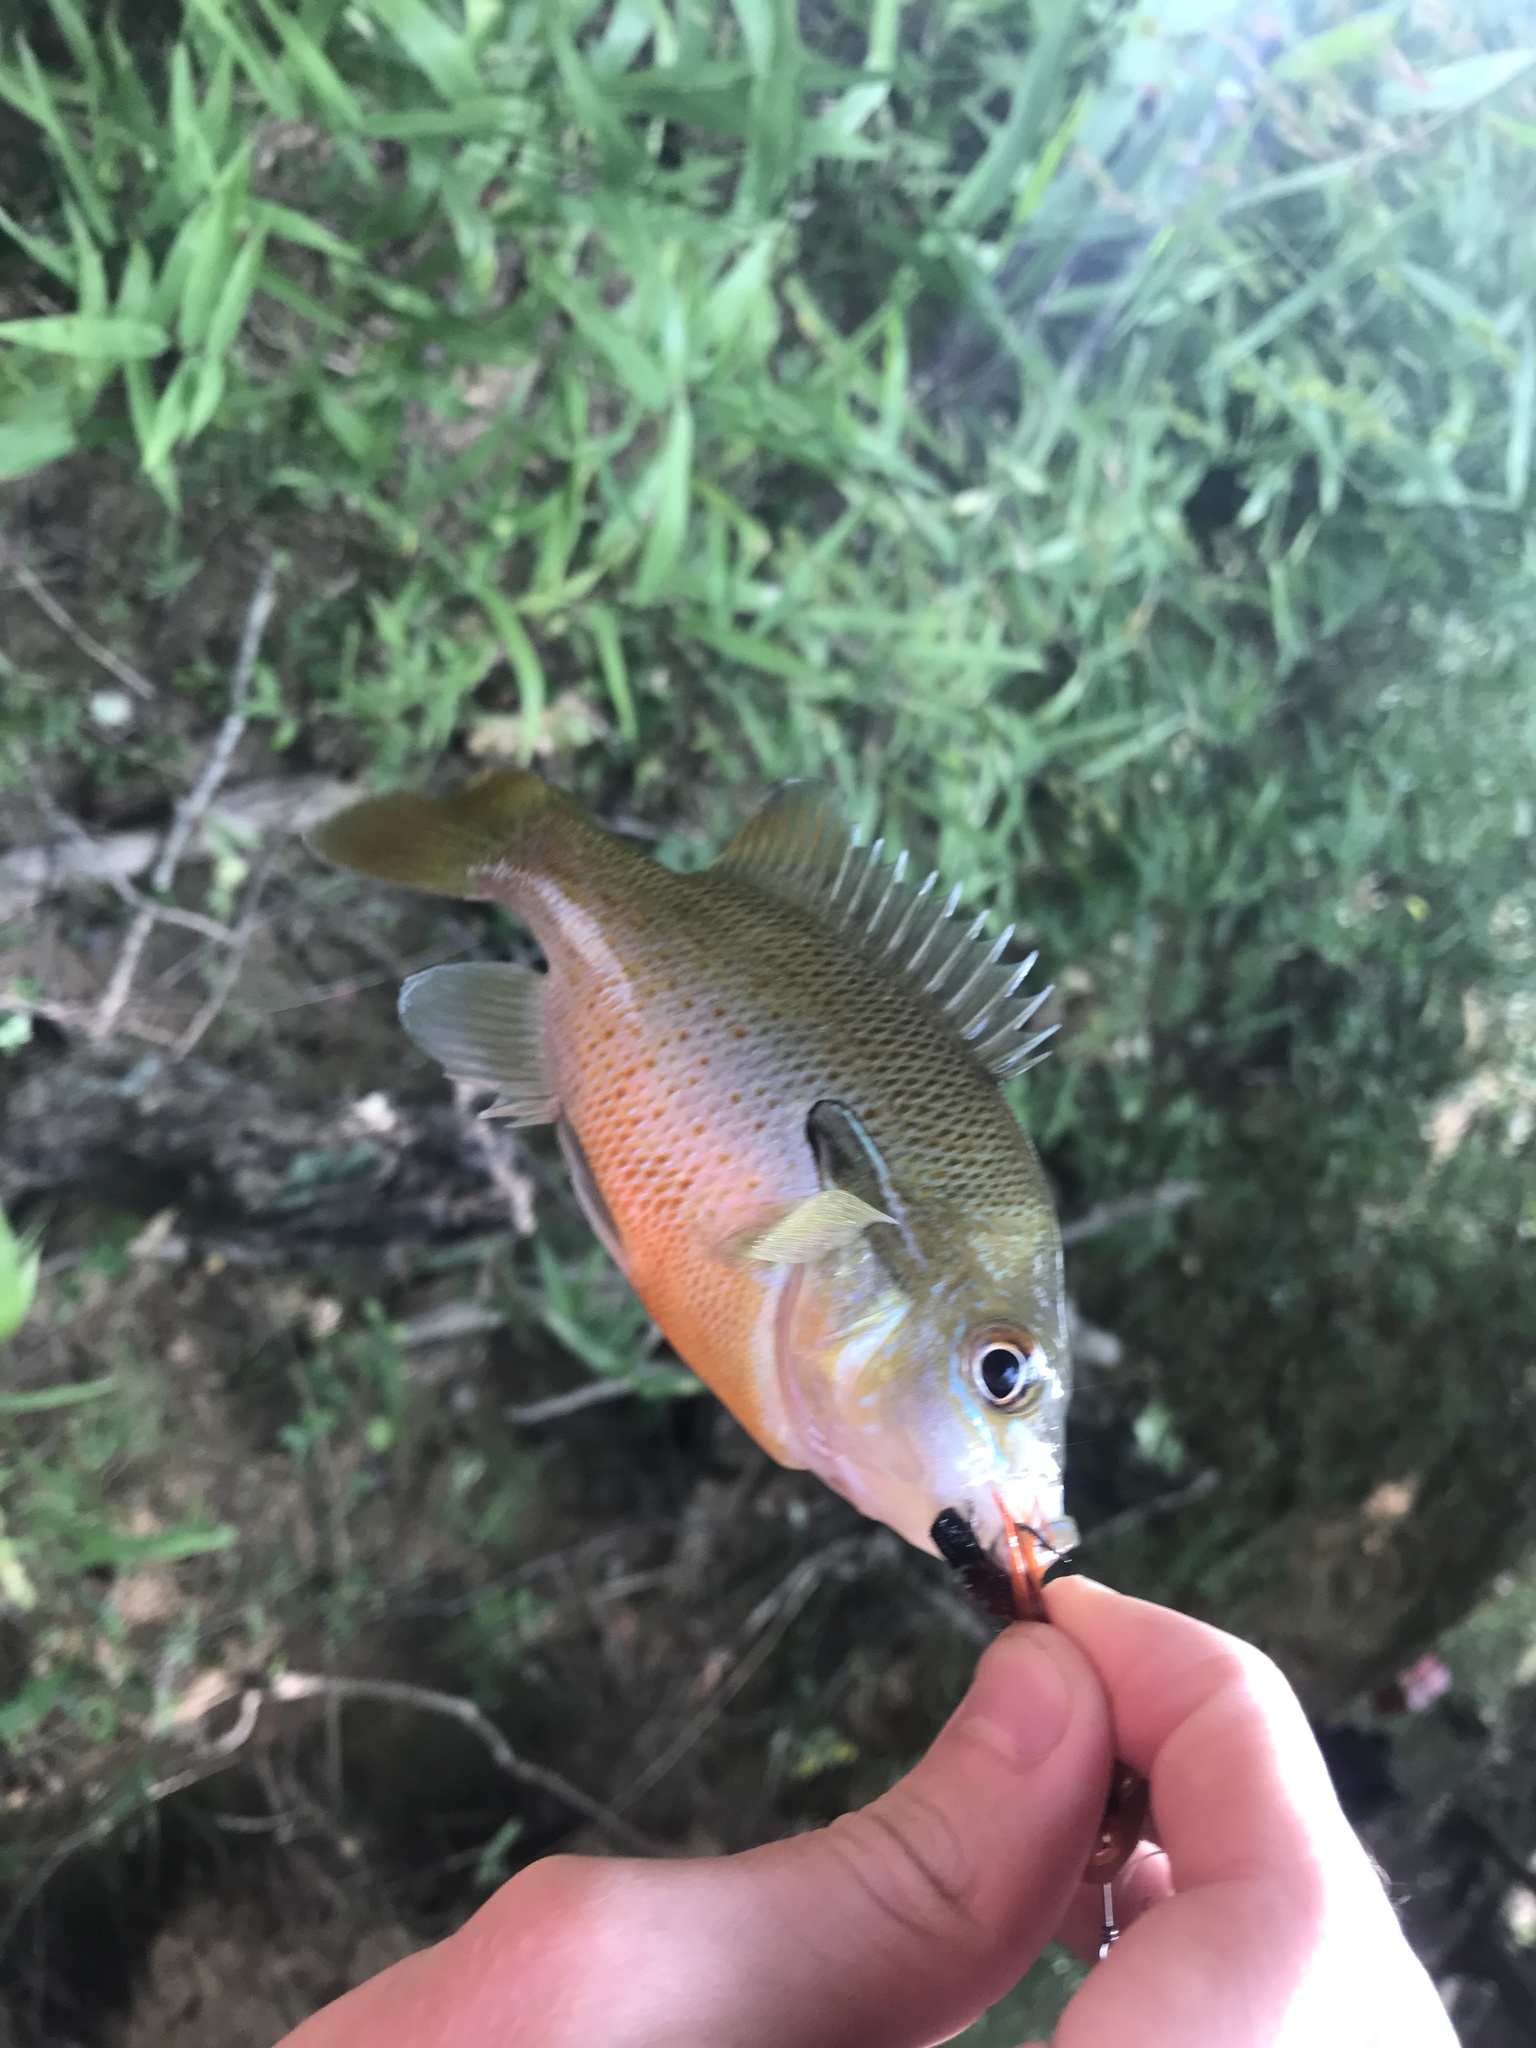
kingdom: Animalia
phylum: Chordata
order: Perciformes
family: Centrarchidae
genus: Lepomis
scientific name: Lepomis auritus
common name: Redbreast sunfish
